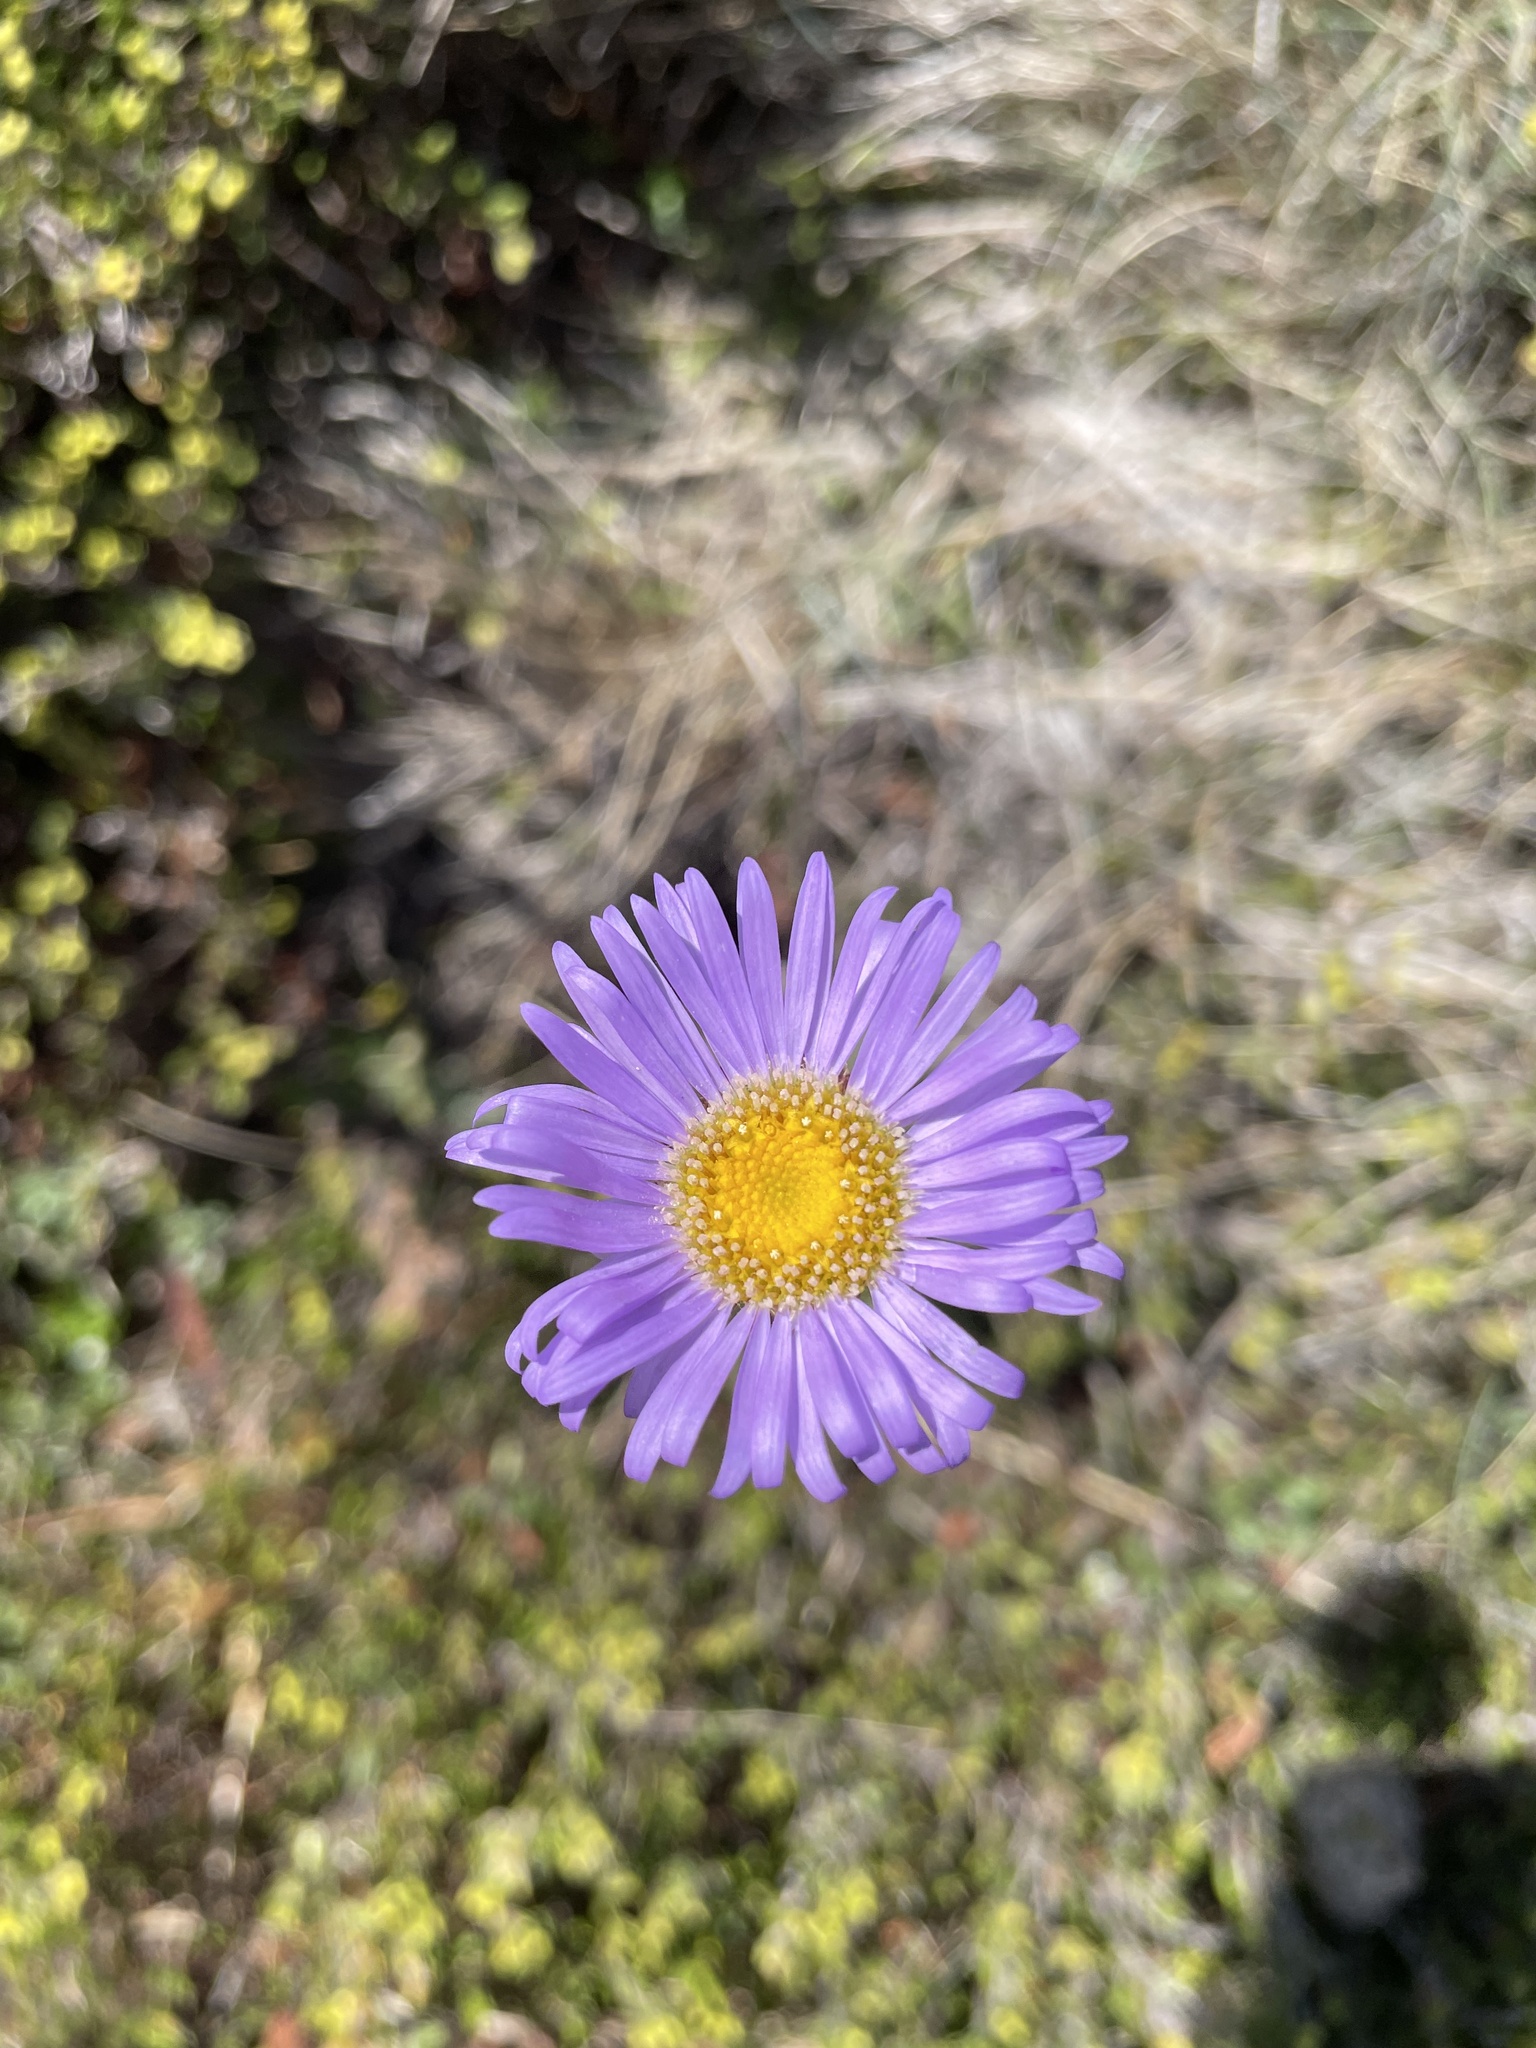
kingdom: Plantae
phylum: Tracheophyta
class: Magnoliopsida
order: Asterales
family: Asteraceae
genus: Brachyscome
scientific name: Brachyscome spathulata
